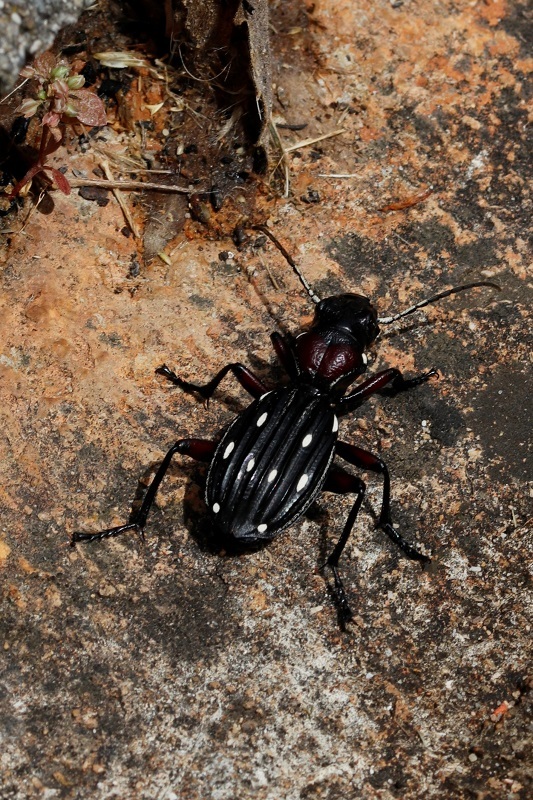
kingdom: Animalia
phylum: Arthropoda
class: Insecta
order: Coleoptera
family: Carabidae
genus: Anthia
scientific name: Anthia decemguttata
